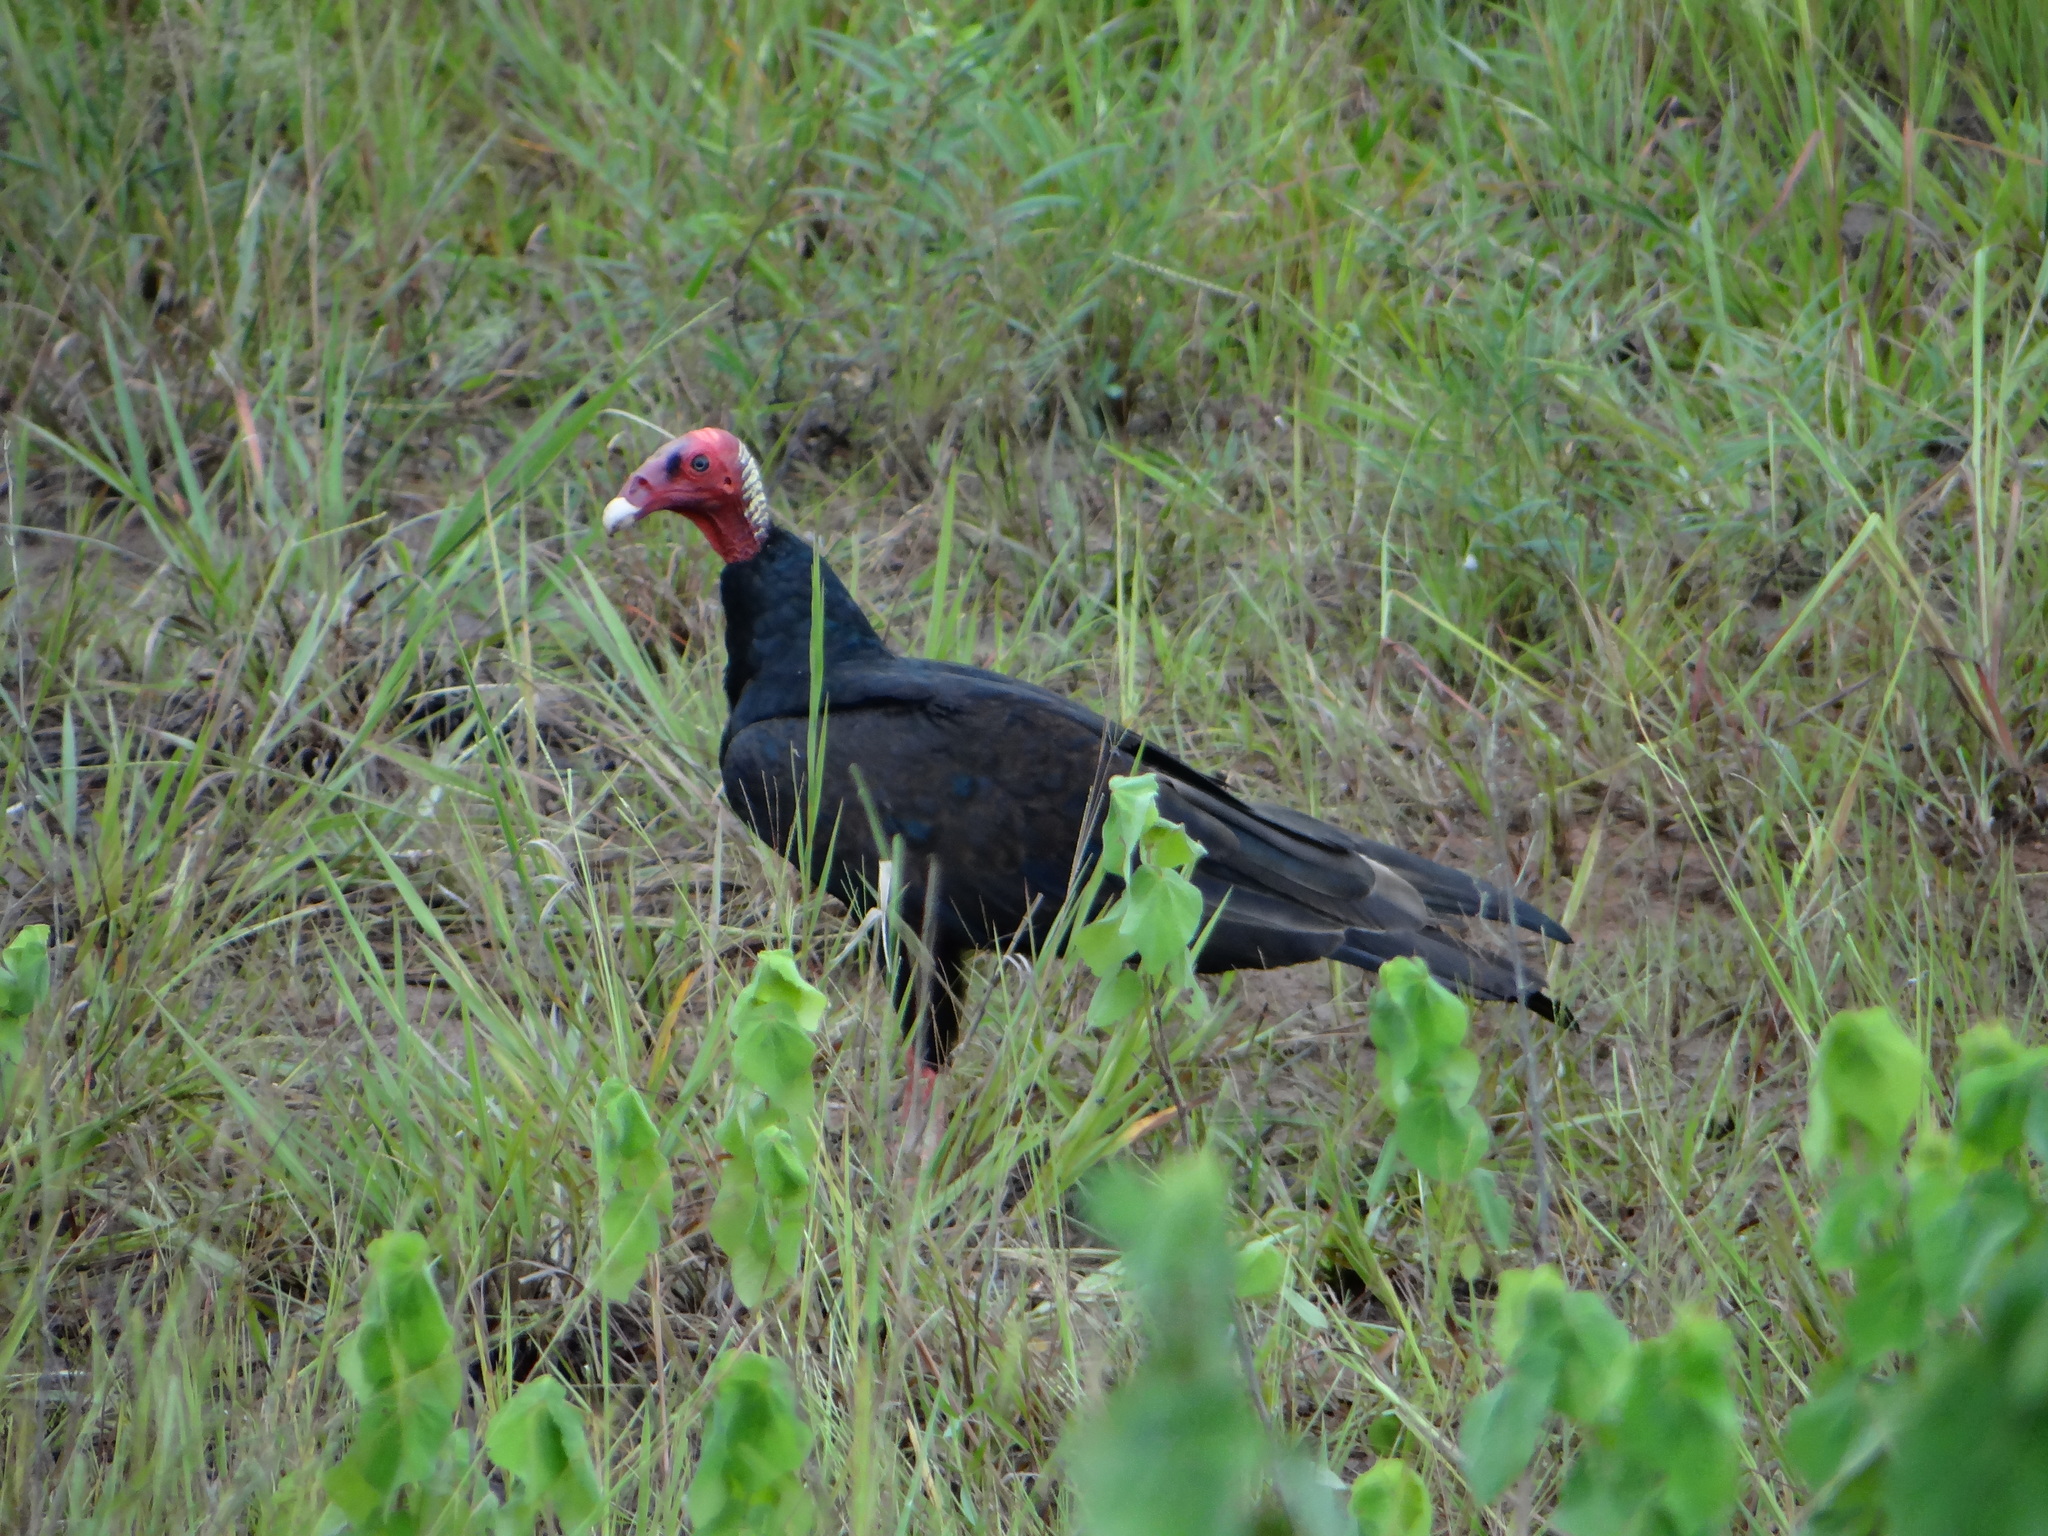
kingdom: Animalia
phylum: Chordata
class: Aves
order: Accipitriformes
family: Cathartidae
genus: Cathartes
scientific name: Cathartes aura
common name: Turkey vulture
